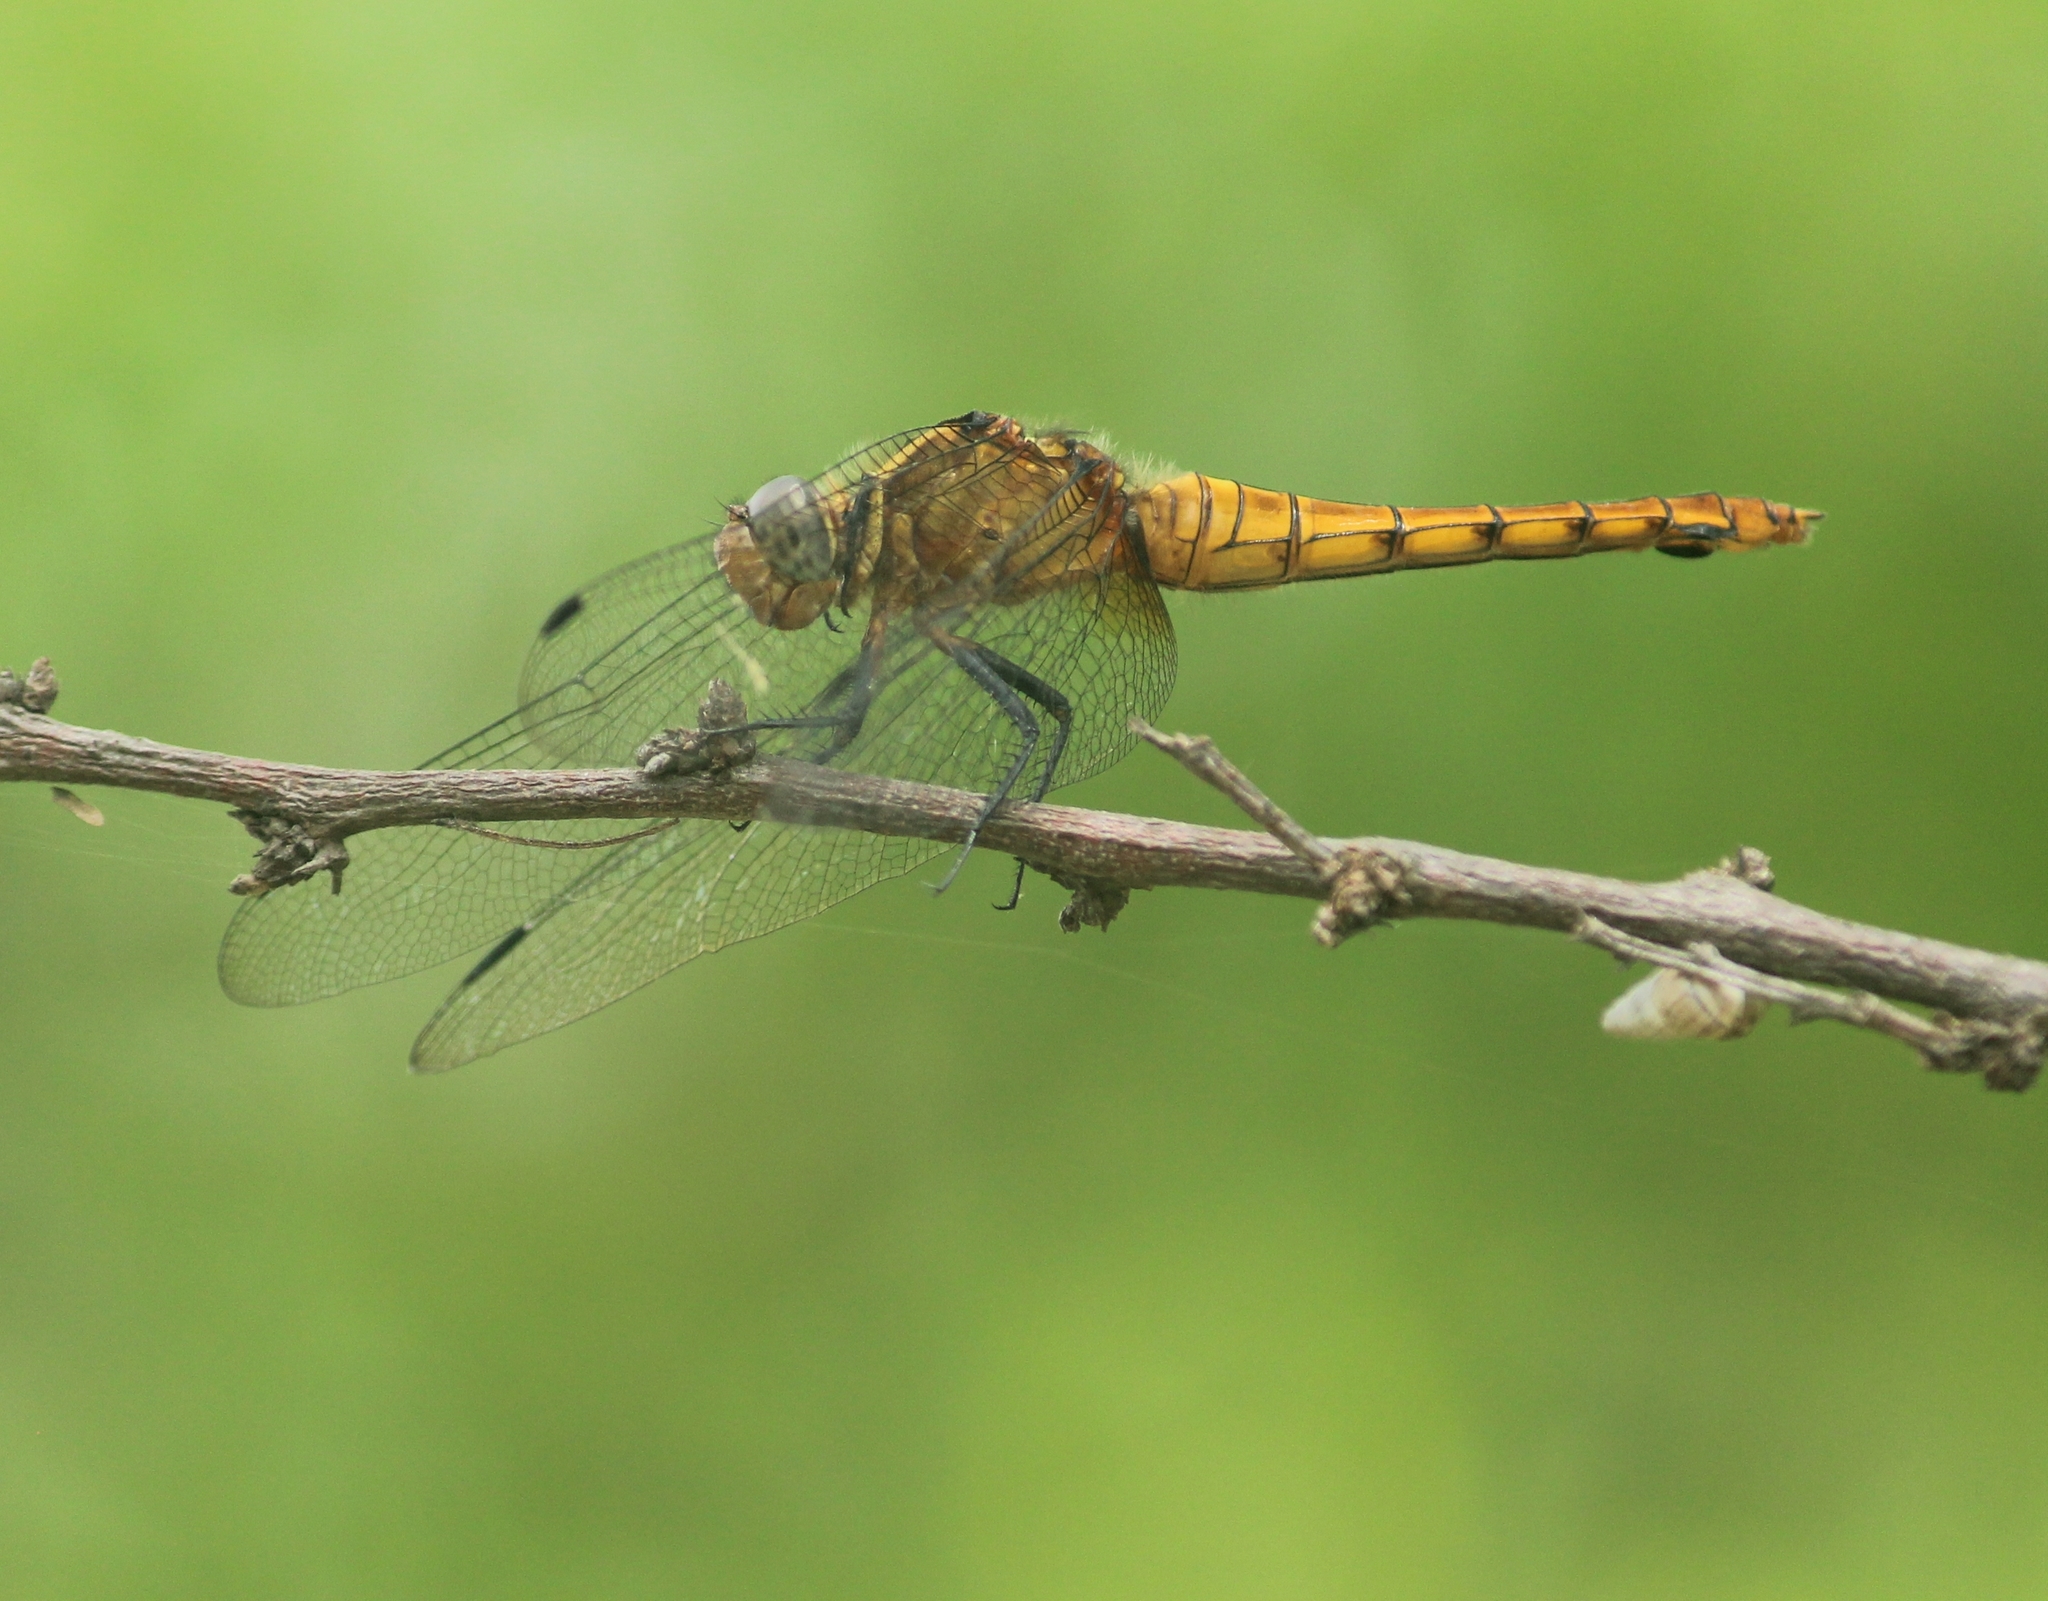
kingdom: Animalia
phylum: Arthropoda
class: Insecta
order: Odonata
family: Libellulidae
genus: Orthetrum
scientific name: Orthetrum pruinosum
